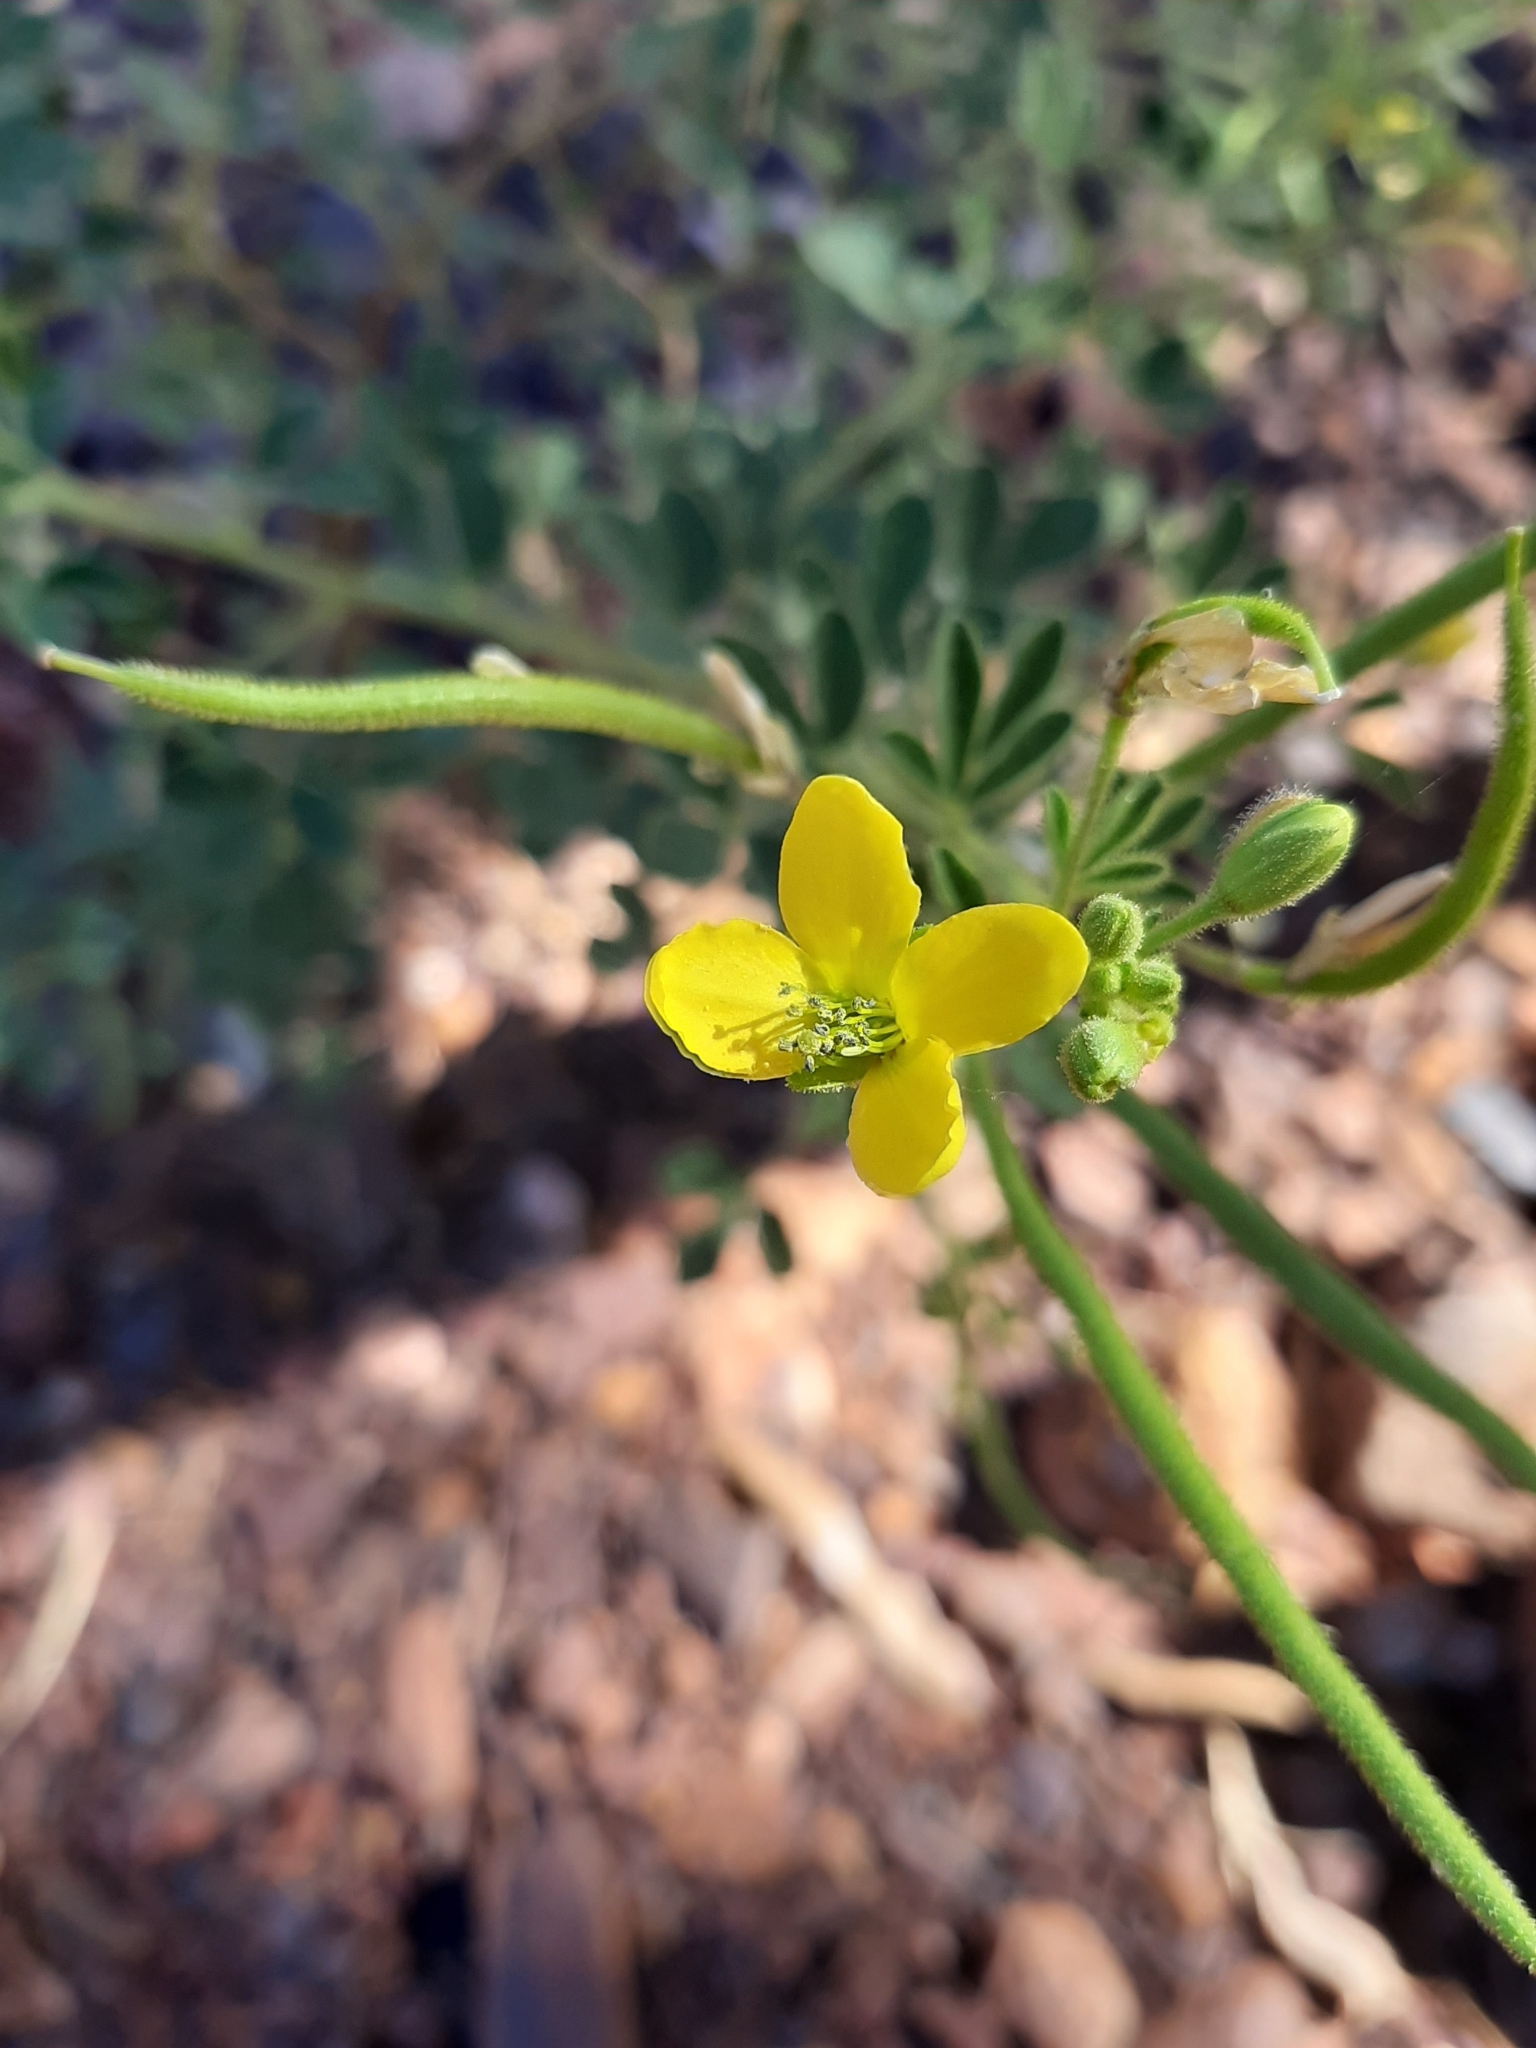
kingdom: Plantae
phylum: Tracheophyta
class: Magnoliopsida
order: Brassicales
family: Cleomaceae
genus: Arivela
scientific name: Arivela viscosa
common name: Asian spiderflower
